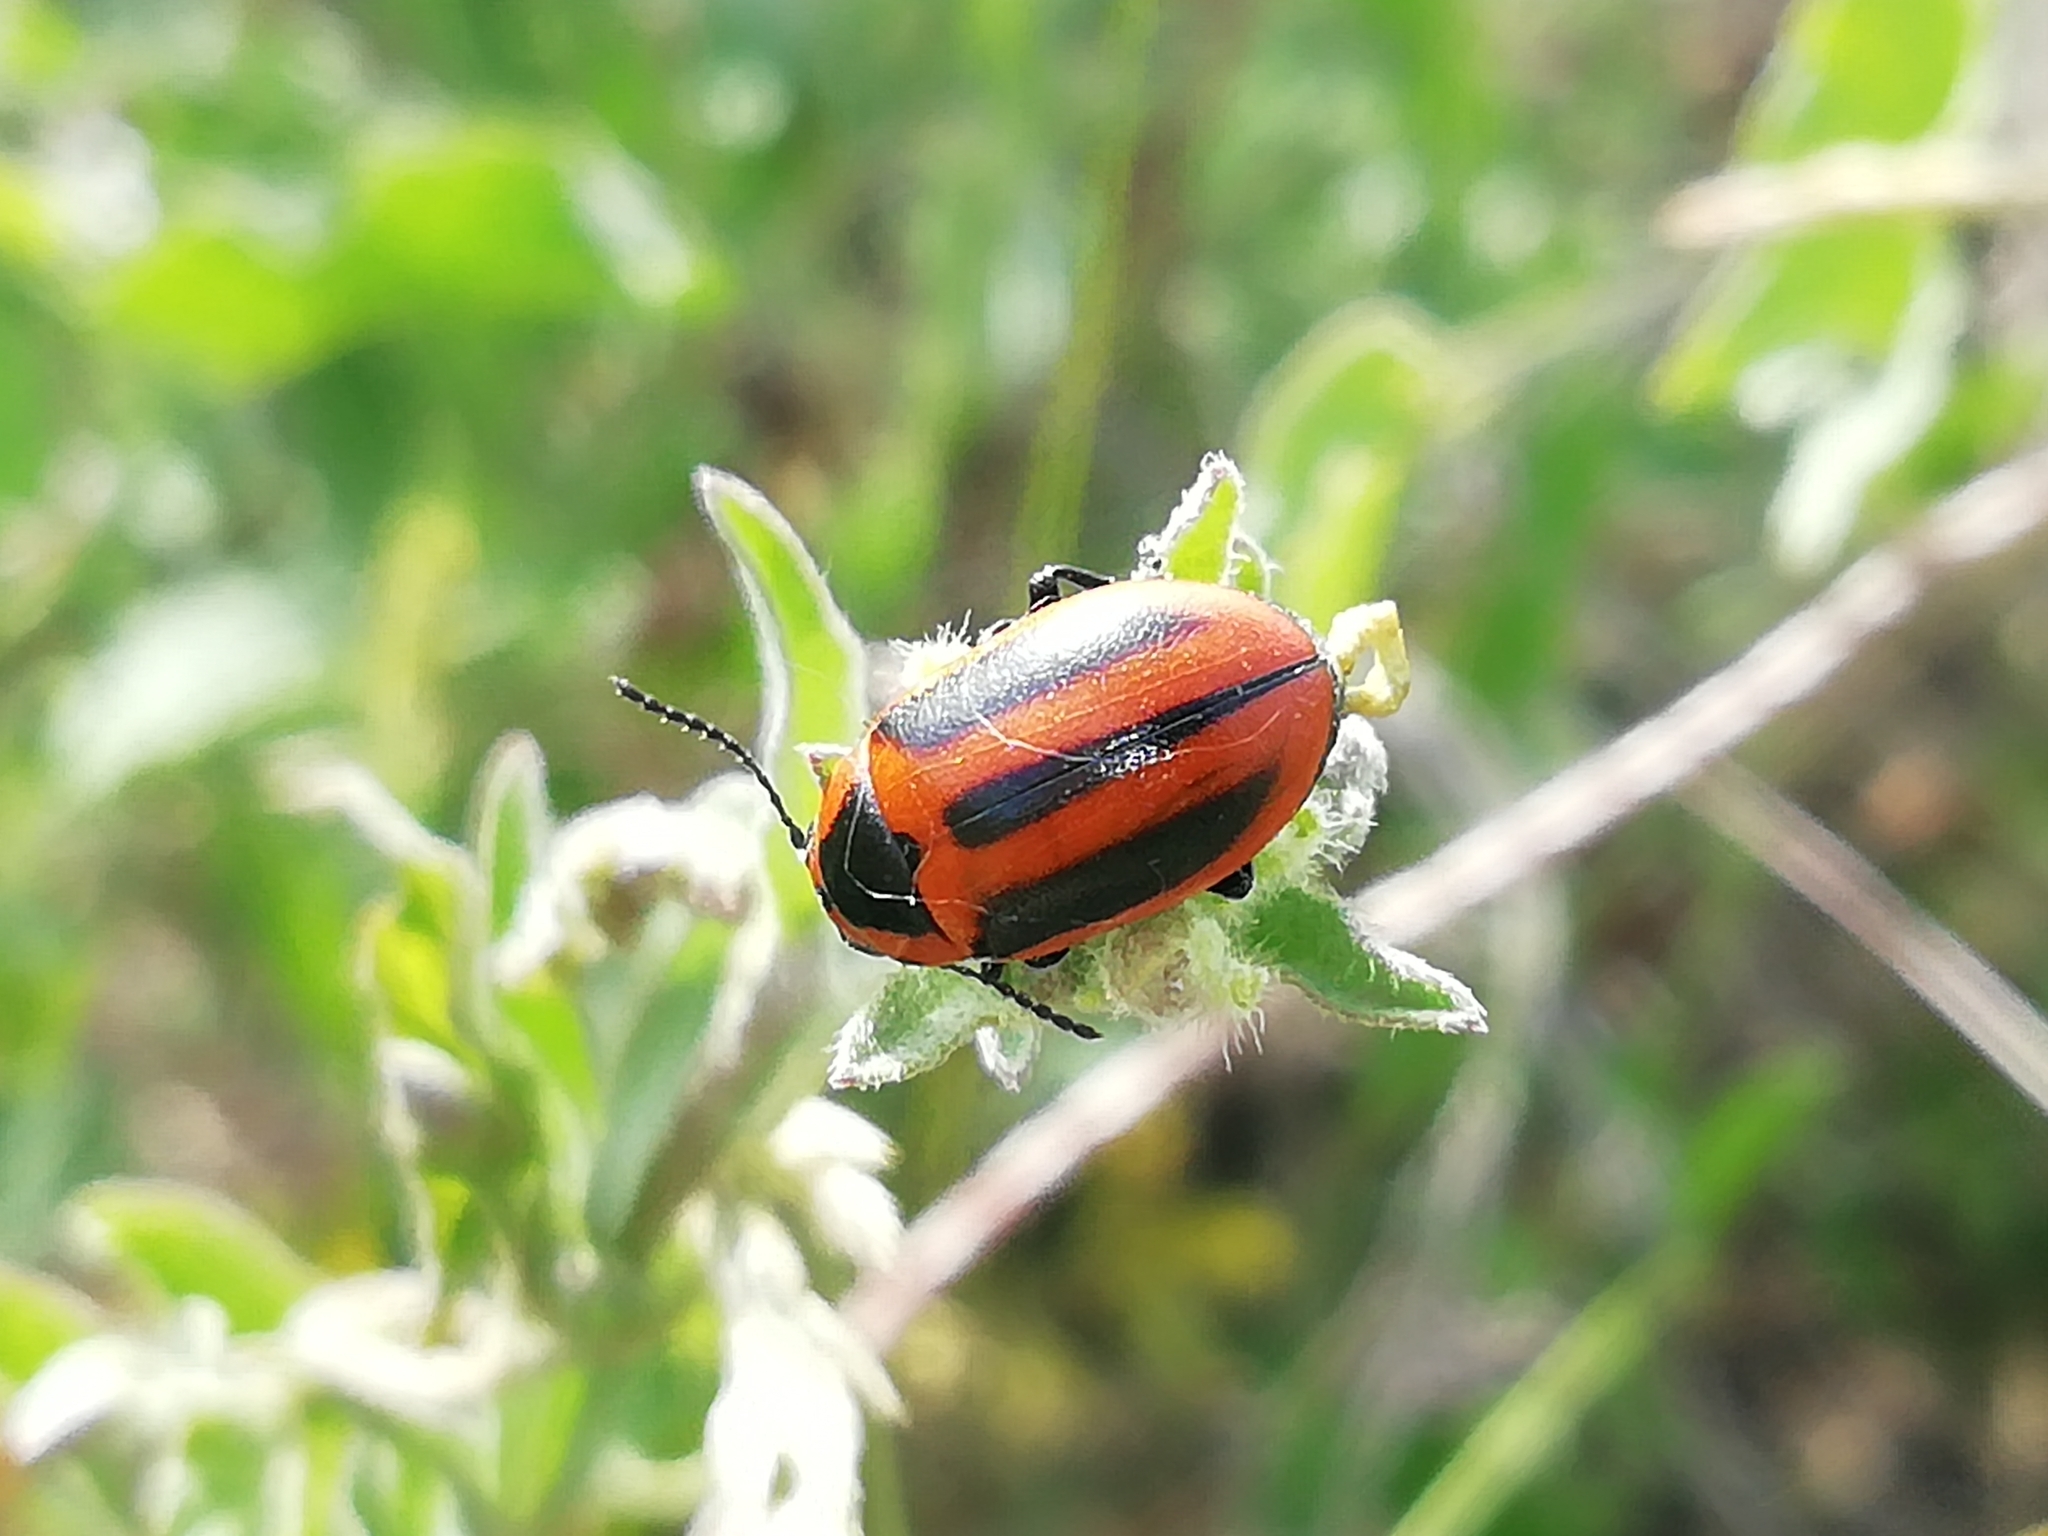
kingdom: Animalia
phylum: Arthropoda
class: Insecta
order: Coleoptera
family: Chrysomelidae
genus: Entomoscelis
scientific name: Entomoscelis adonidis
